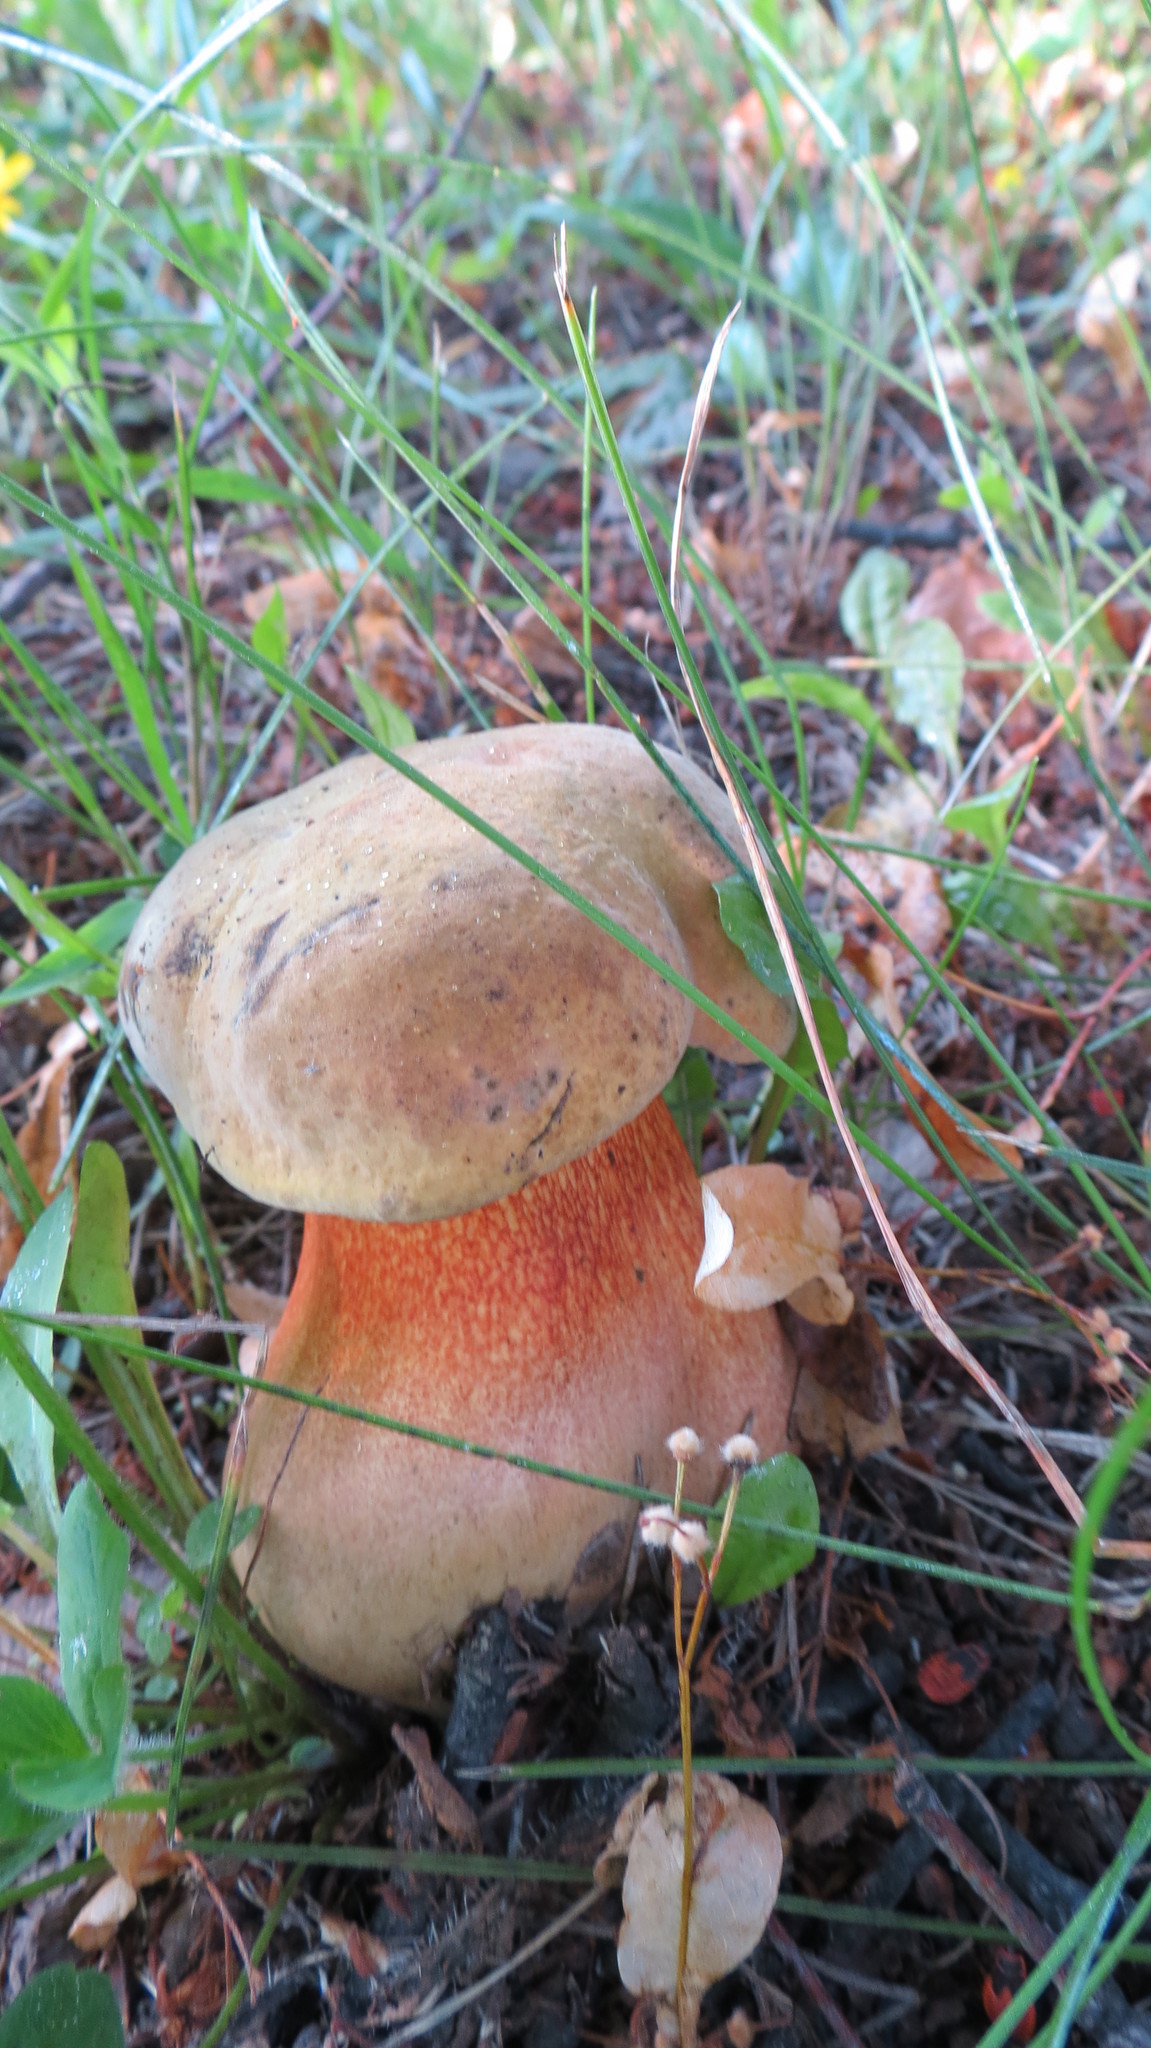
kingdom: Fungi
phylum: Basidiomycota
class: Agaricomycetes
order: Boletales
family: Boletaceae
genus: Suillellus
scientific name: Suillellus luridus
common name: Lurid bolete
